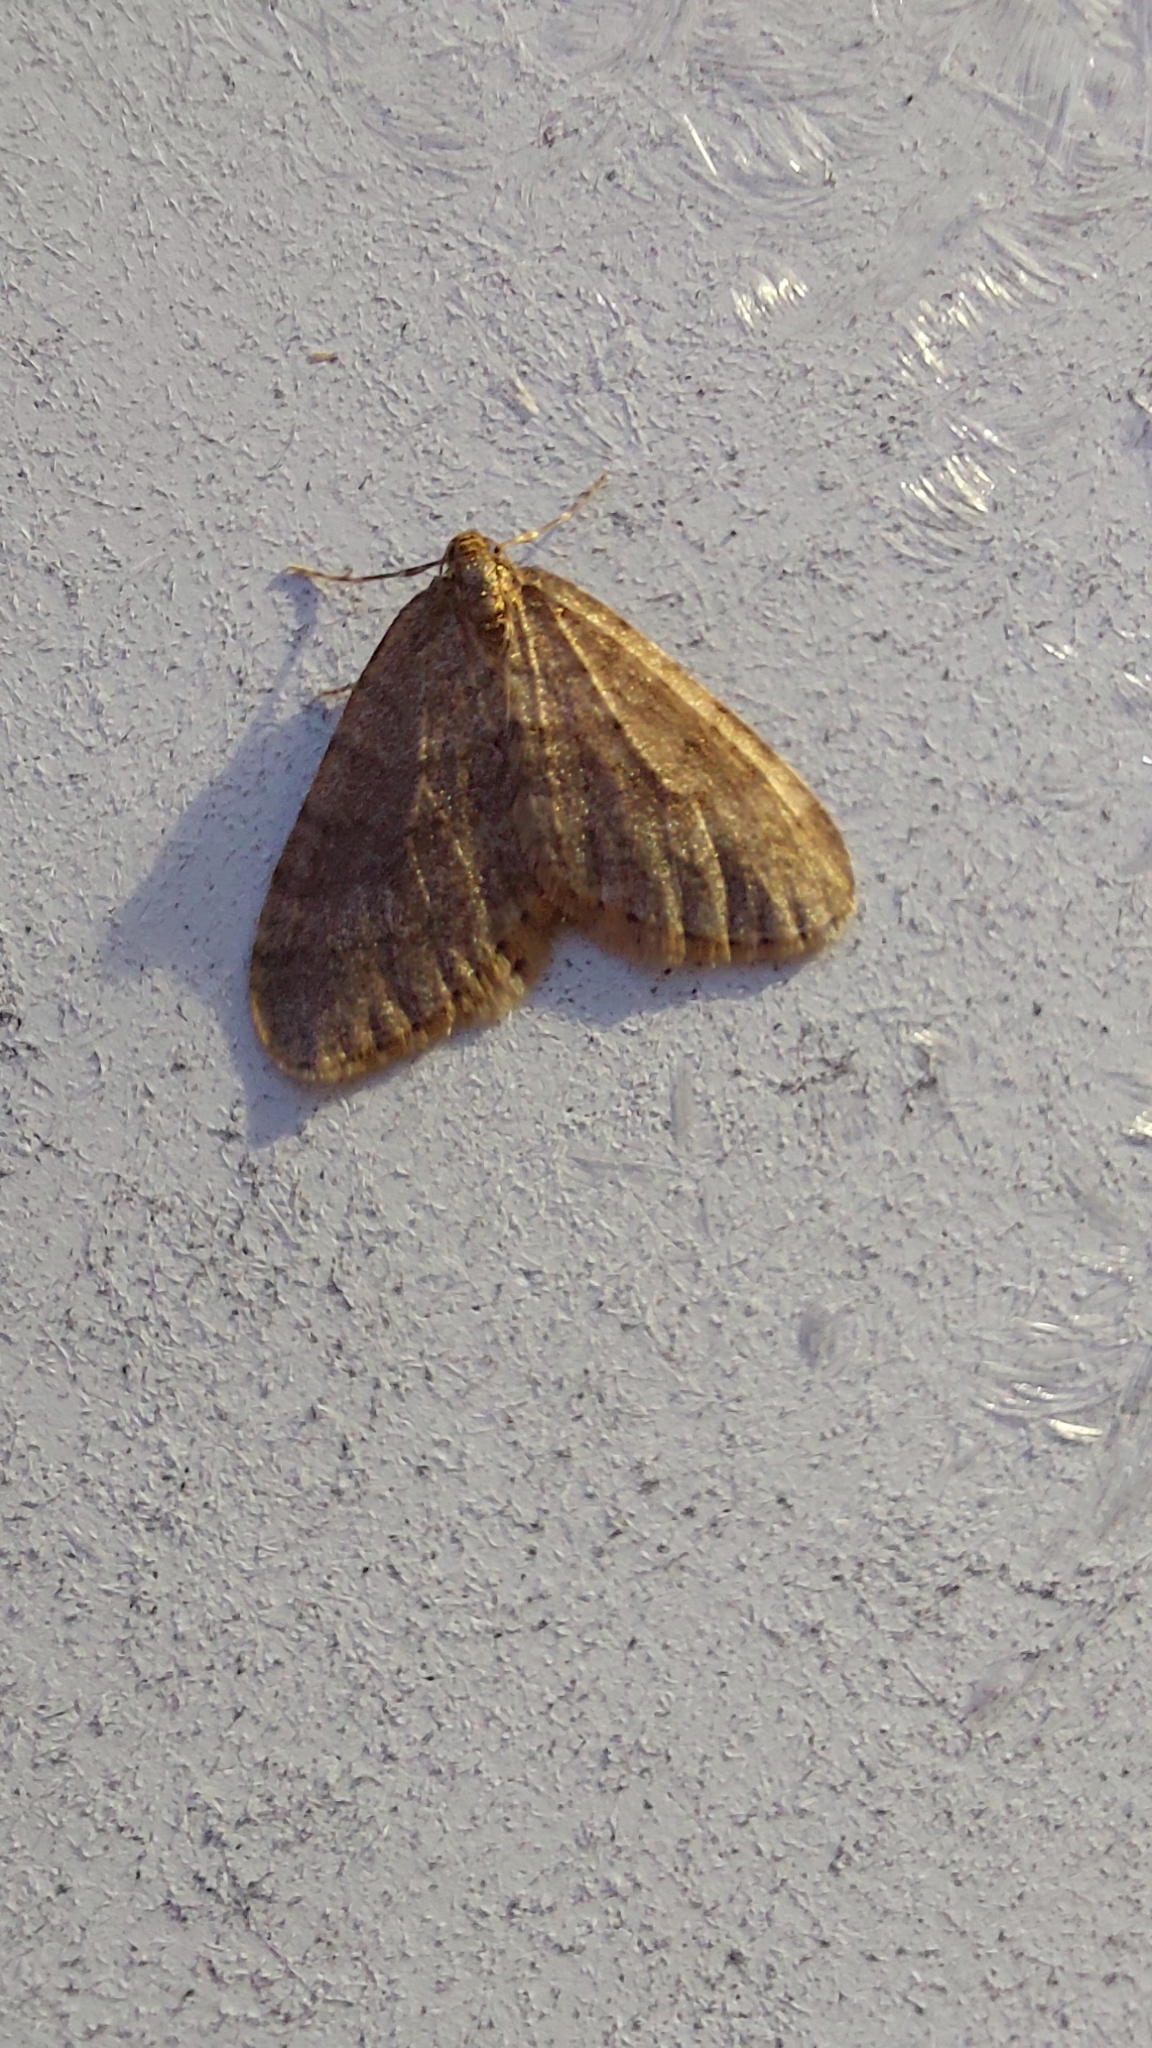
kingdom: Animalia
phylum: Arthropoda
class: Insecta
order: Lepidoptera
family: Geometridae
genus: Operophtera
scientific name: Operophtera brumata
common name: Winter moth
